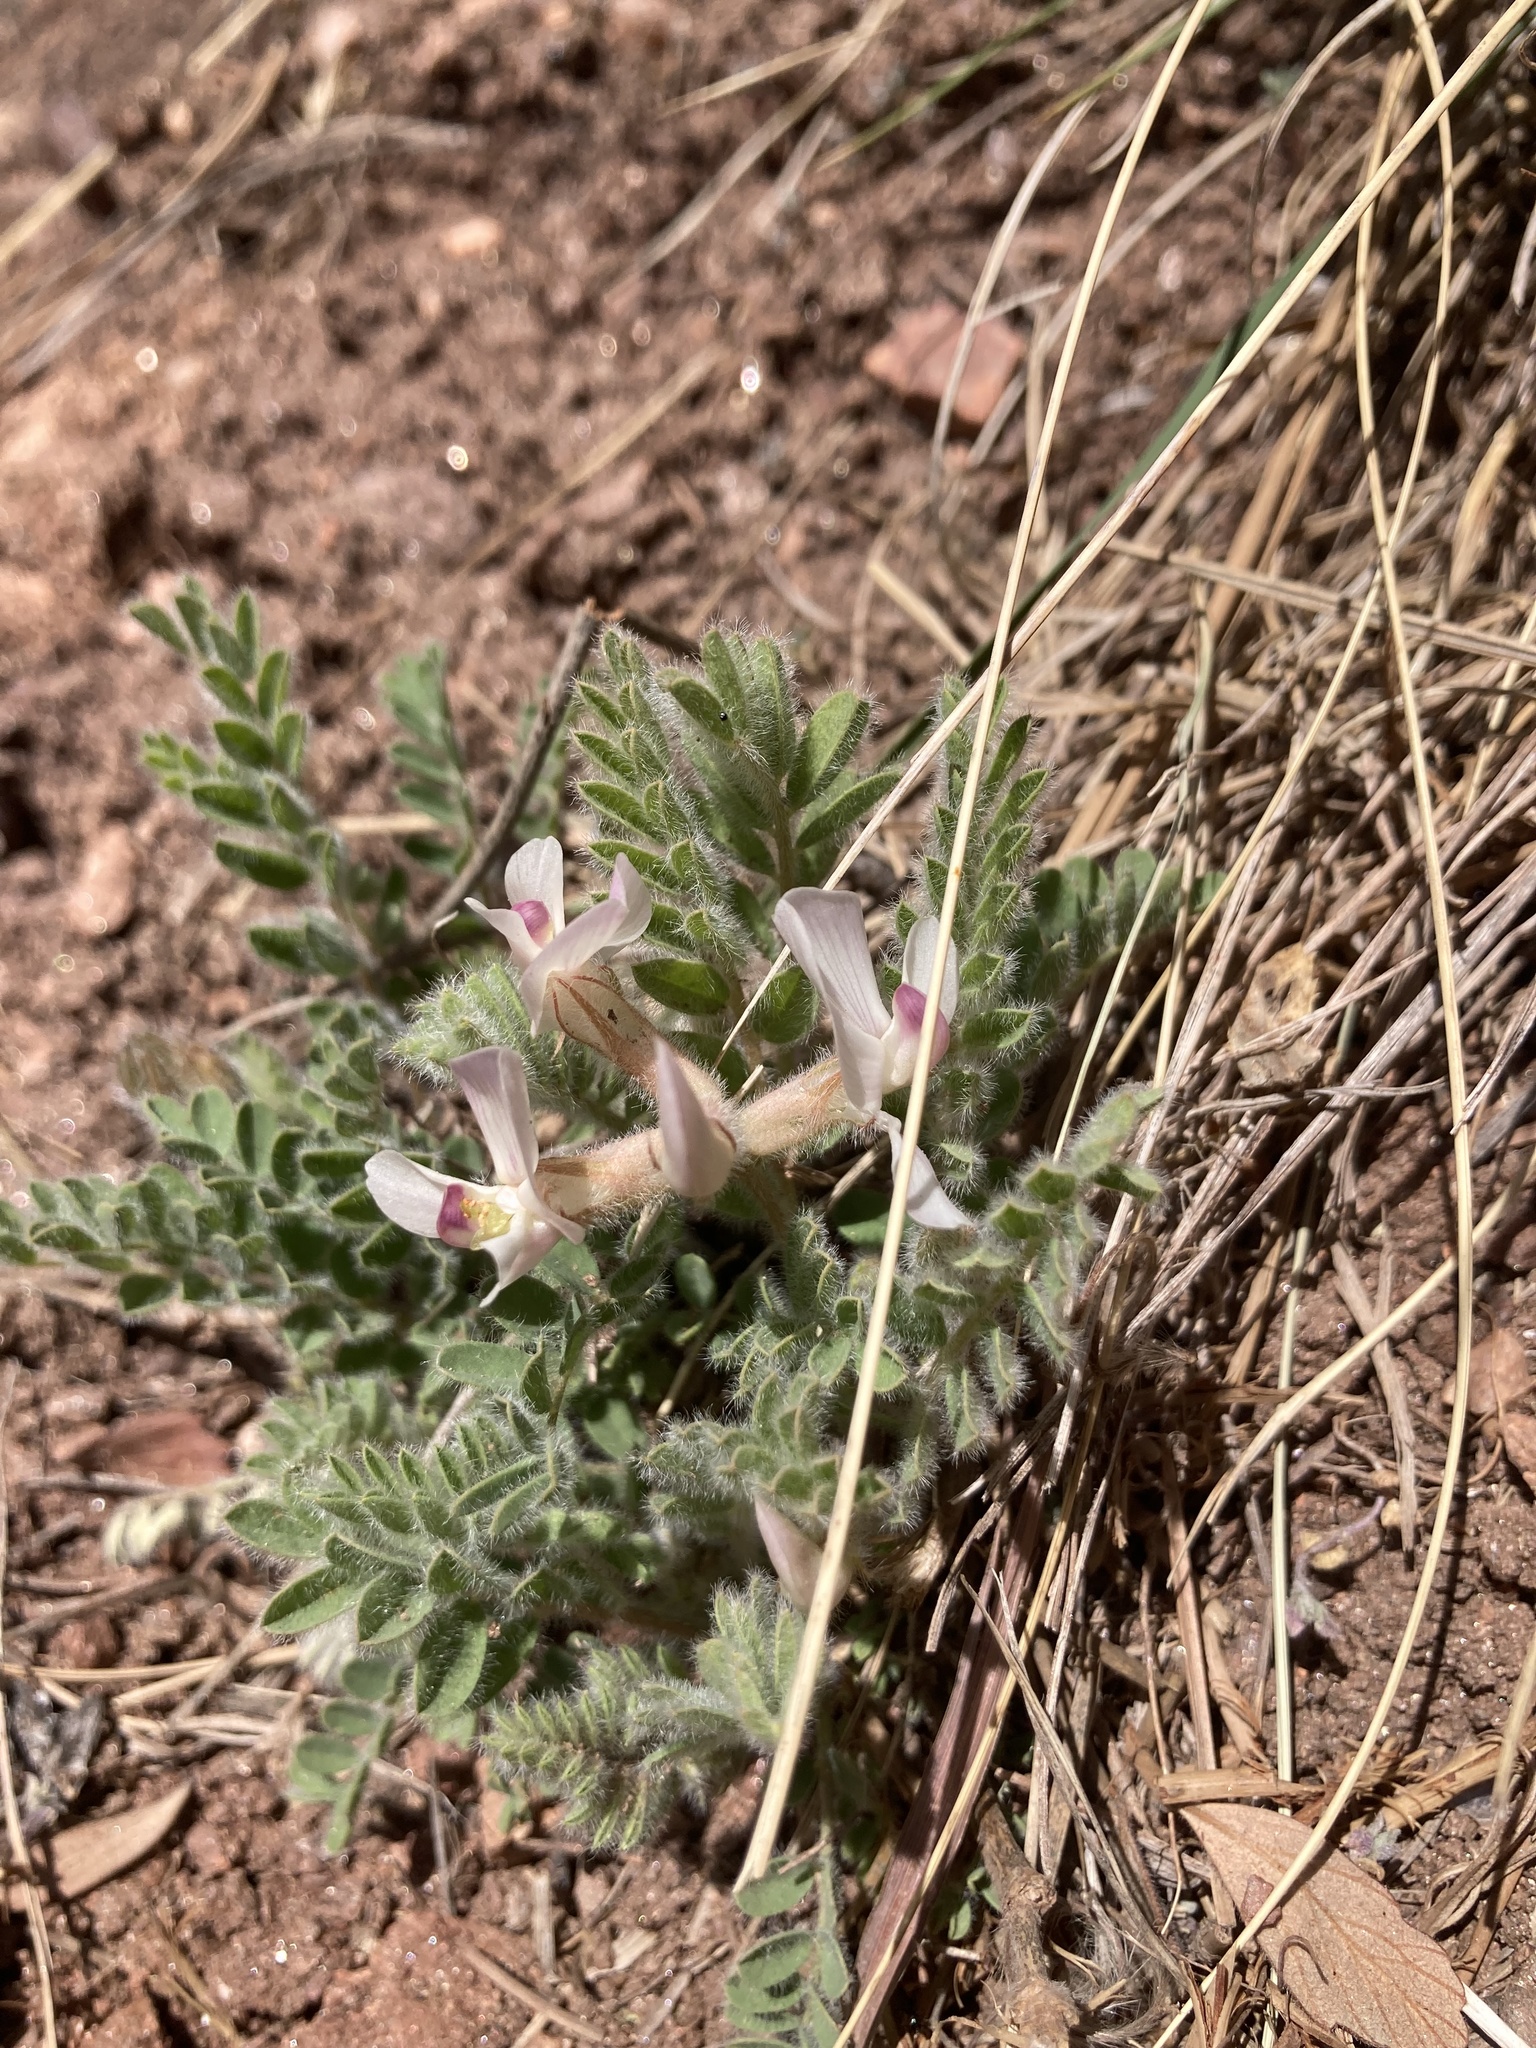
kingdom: Plantae
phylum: Tracheophyta
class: Magnoliopsida
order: Fabales
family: Fabaceae
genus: Astragalus
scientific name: Astragalus parryi
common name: Parry milk-vetch
